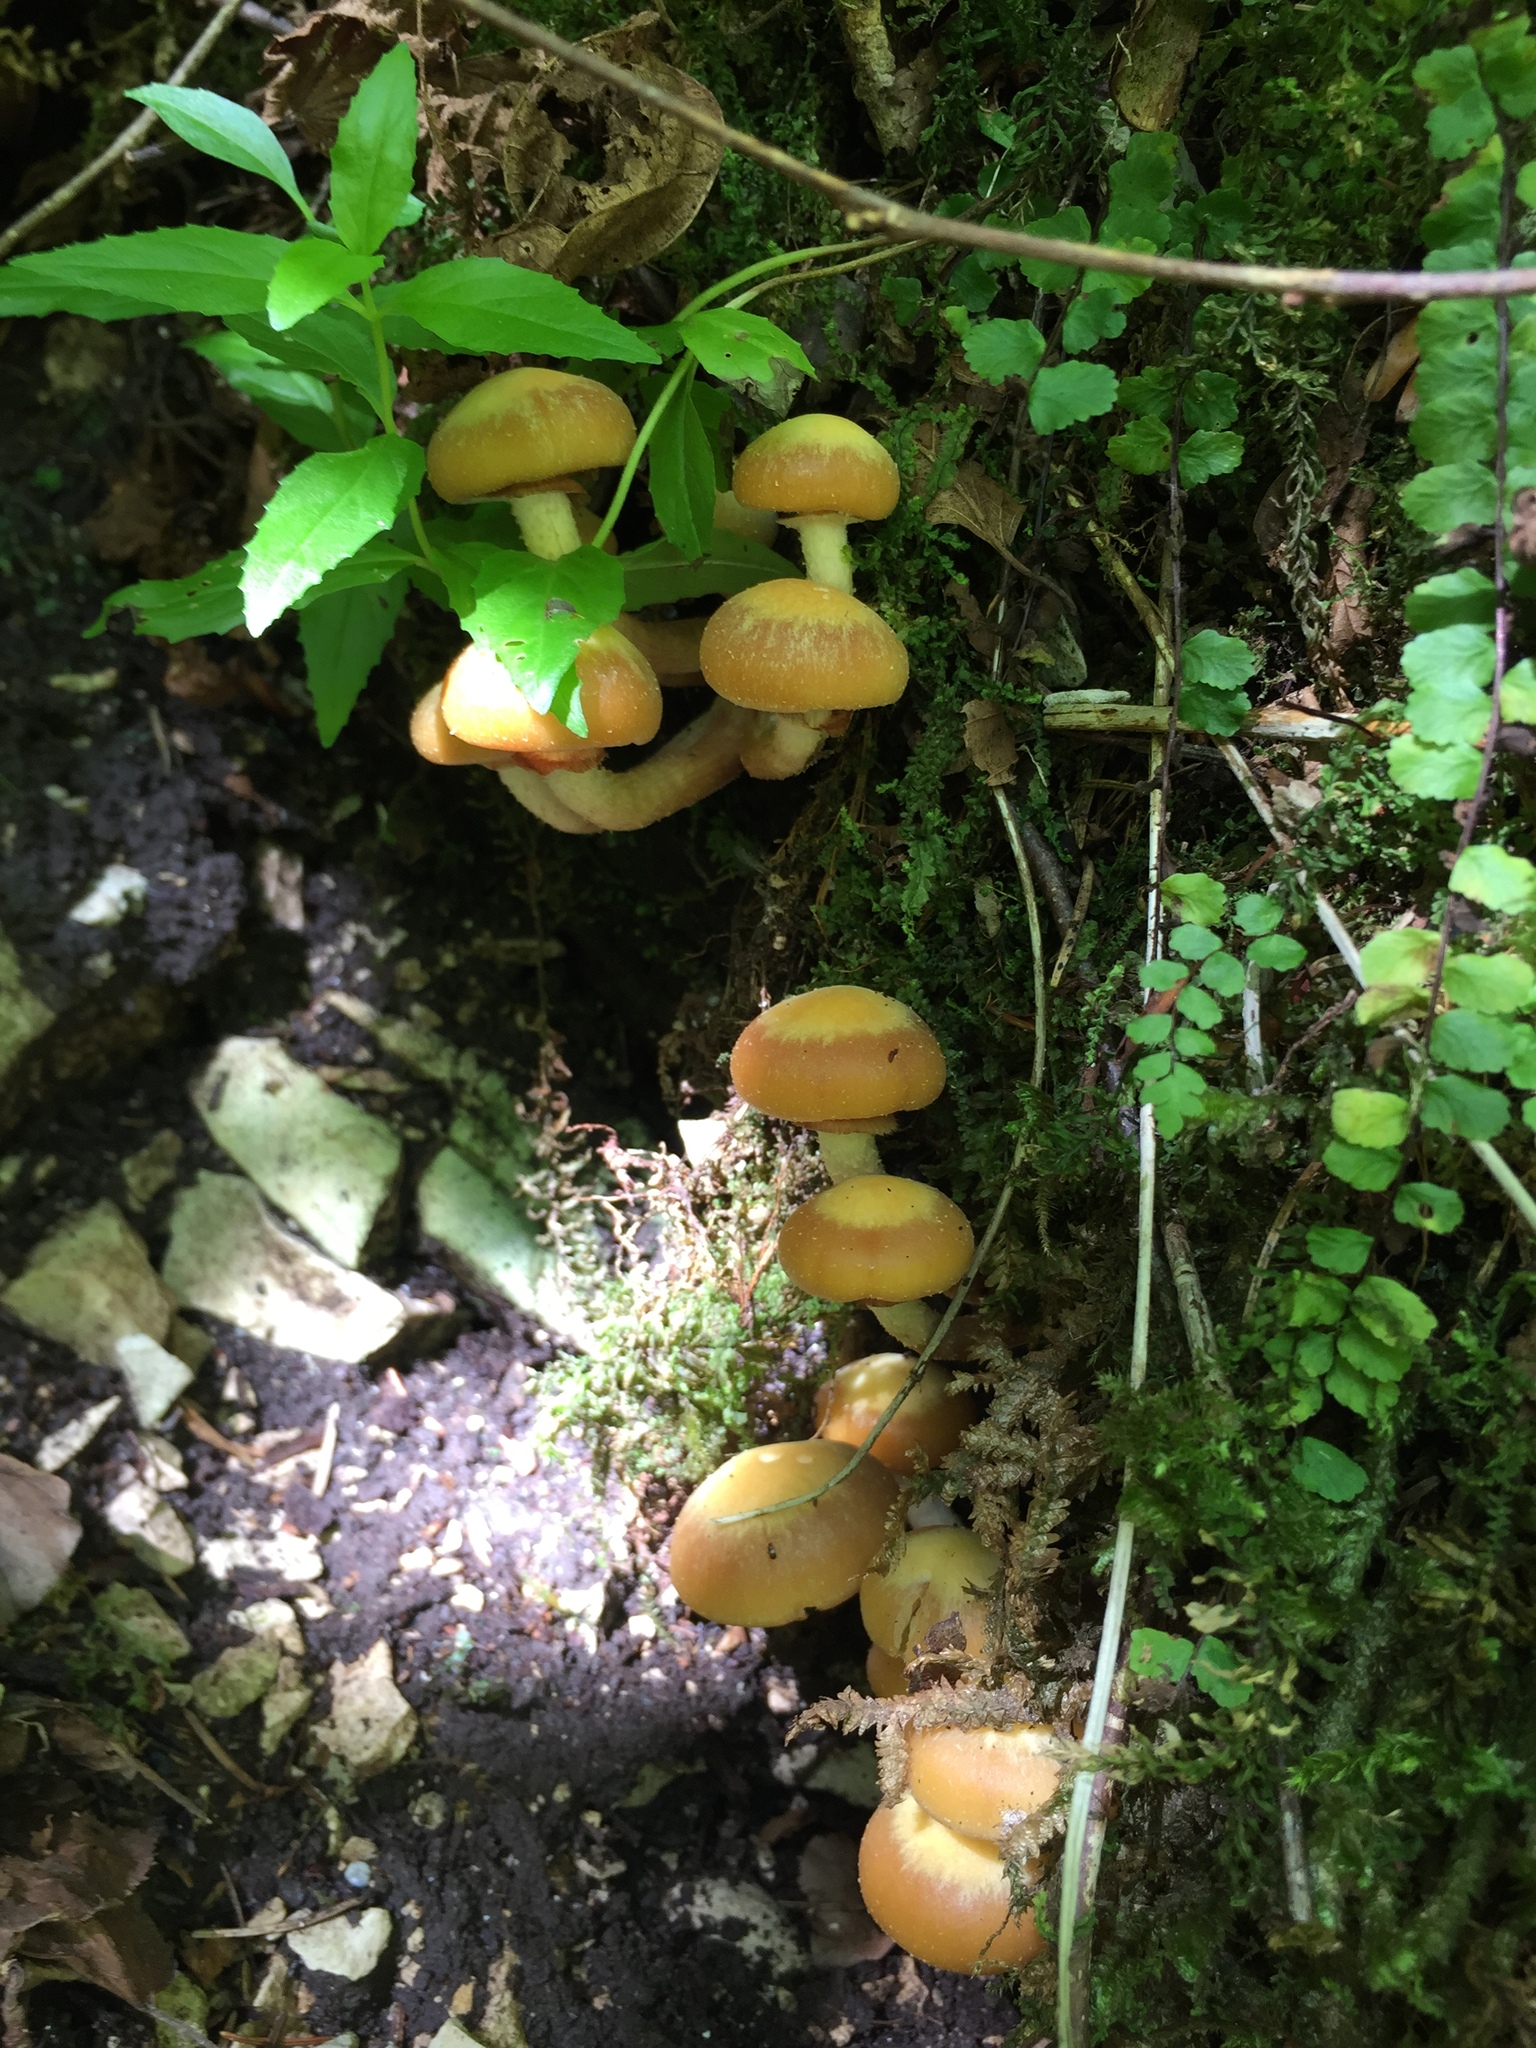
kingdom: Fungi
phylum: Basidiomycota
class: Agaricomycetes
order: Agaricales
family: Strophariaceae
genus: Kuehneromyces
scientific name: Kuehneromyces mutabilis
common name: Sheathed woodtuft
